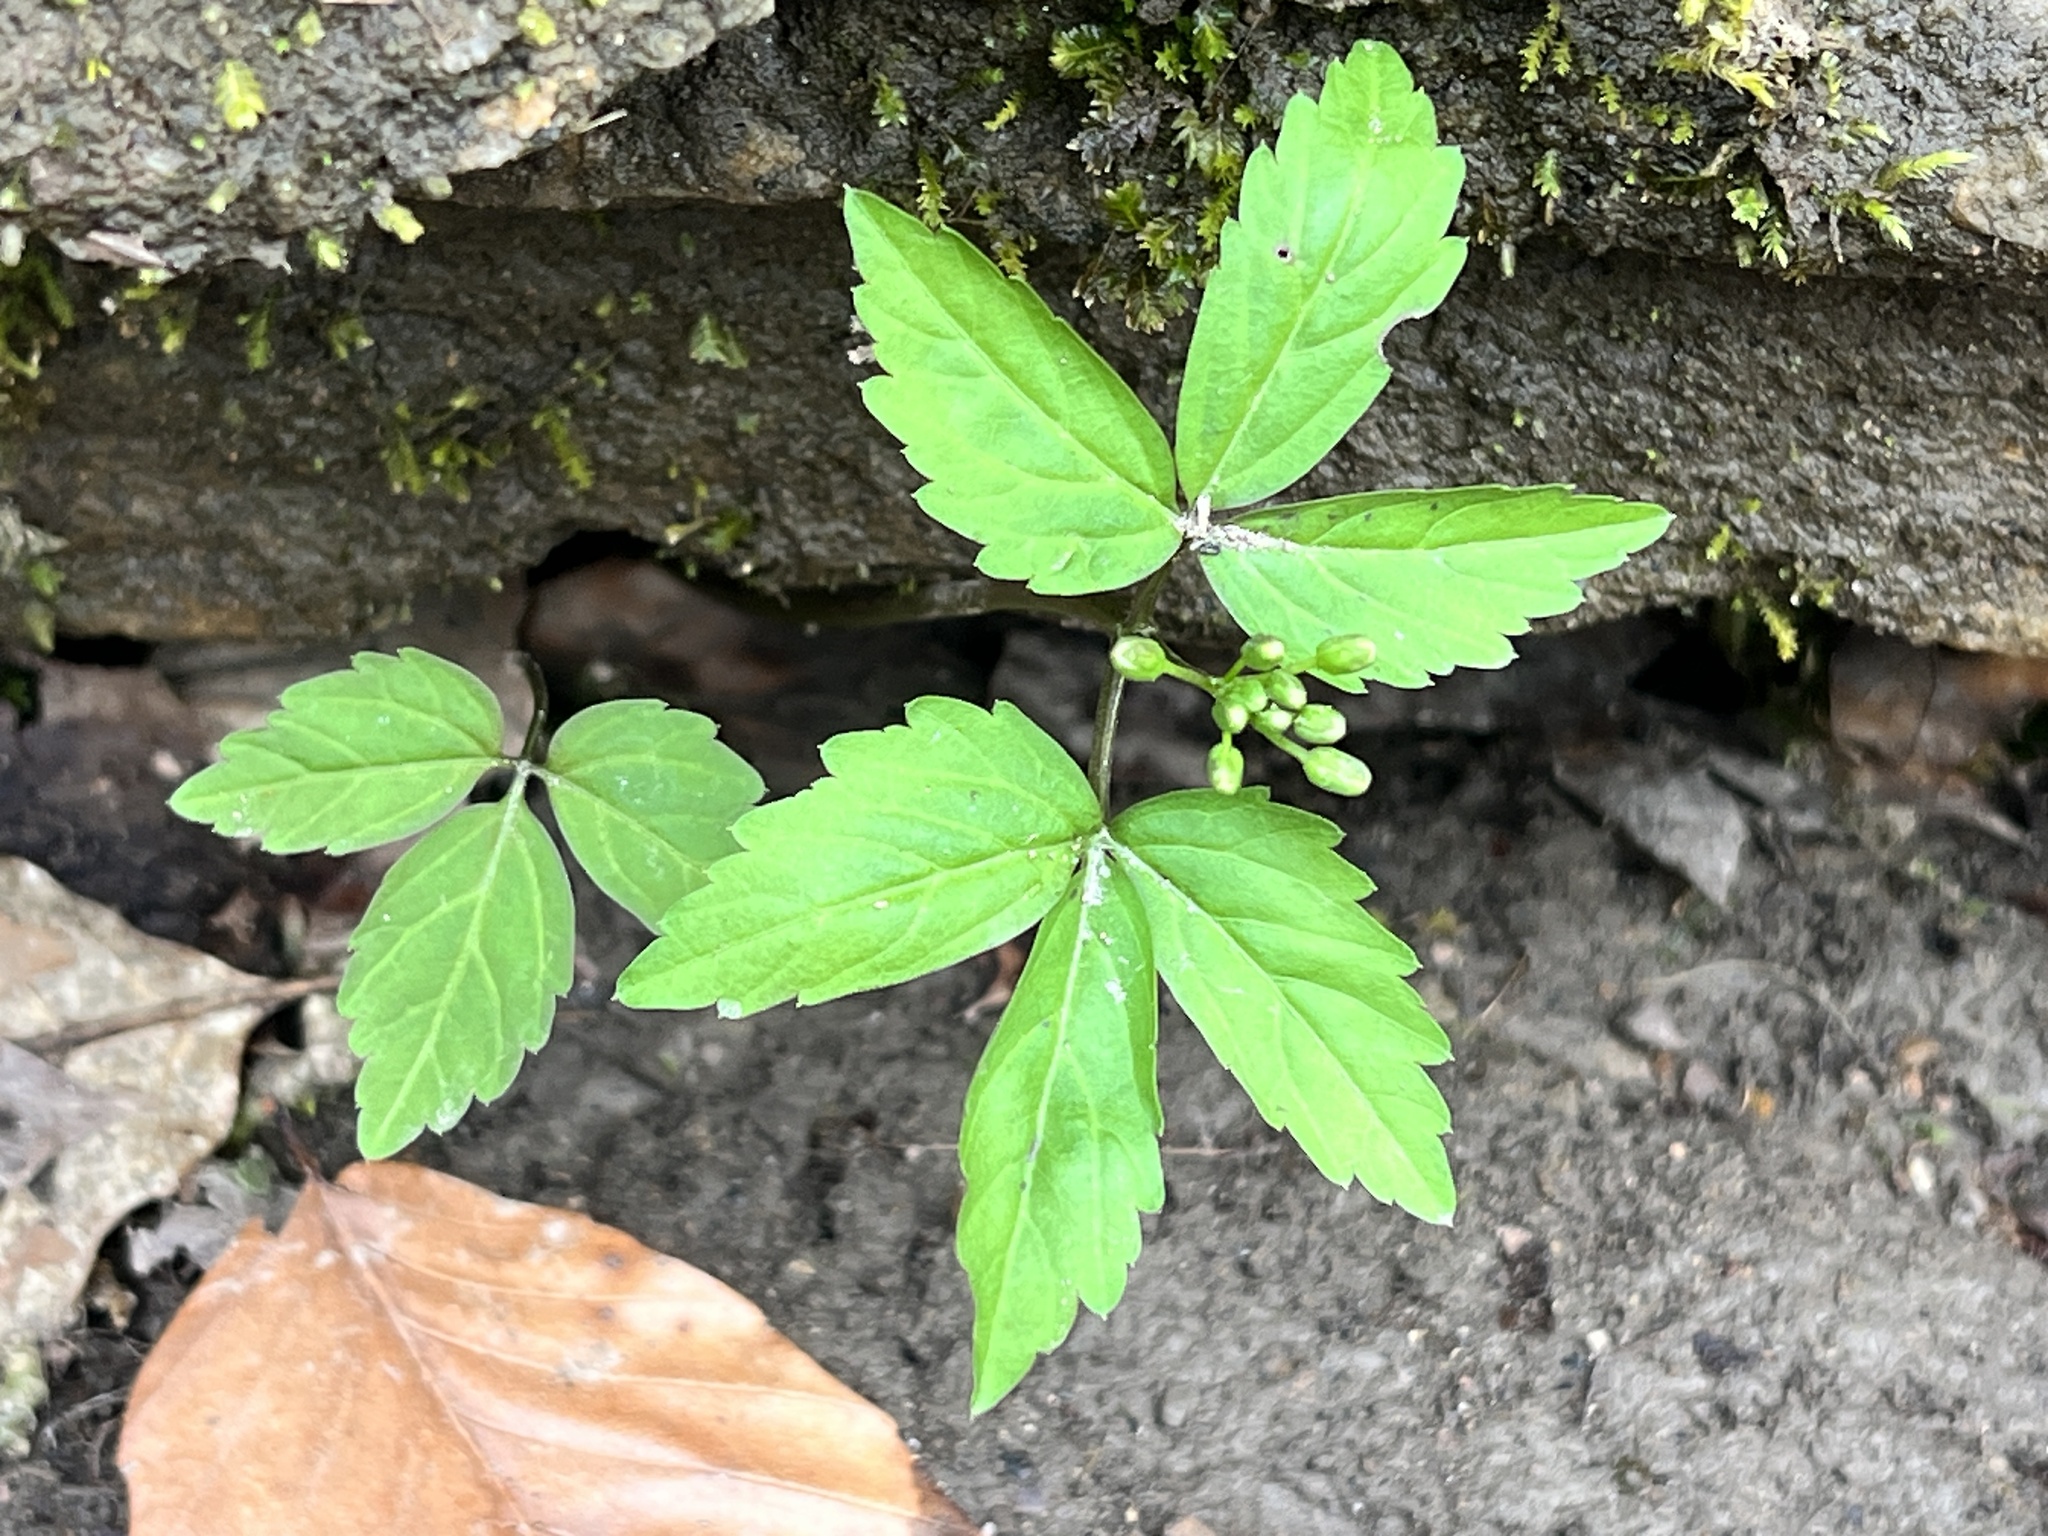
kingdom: Plantae
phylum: Tracheophyta
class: Magnoliopsida
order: Brassicales
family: Brassicaceae
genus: Cardamine
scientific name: Cardamine diphylla
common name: Broad-leaved toothwort
